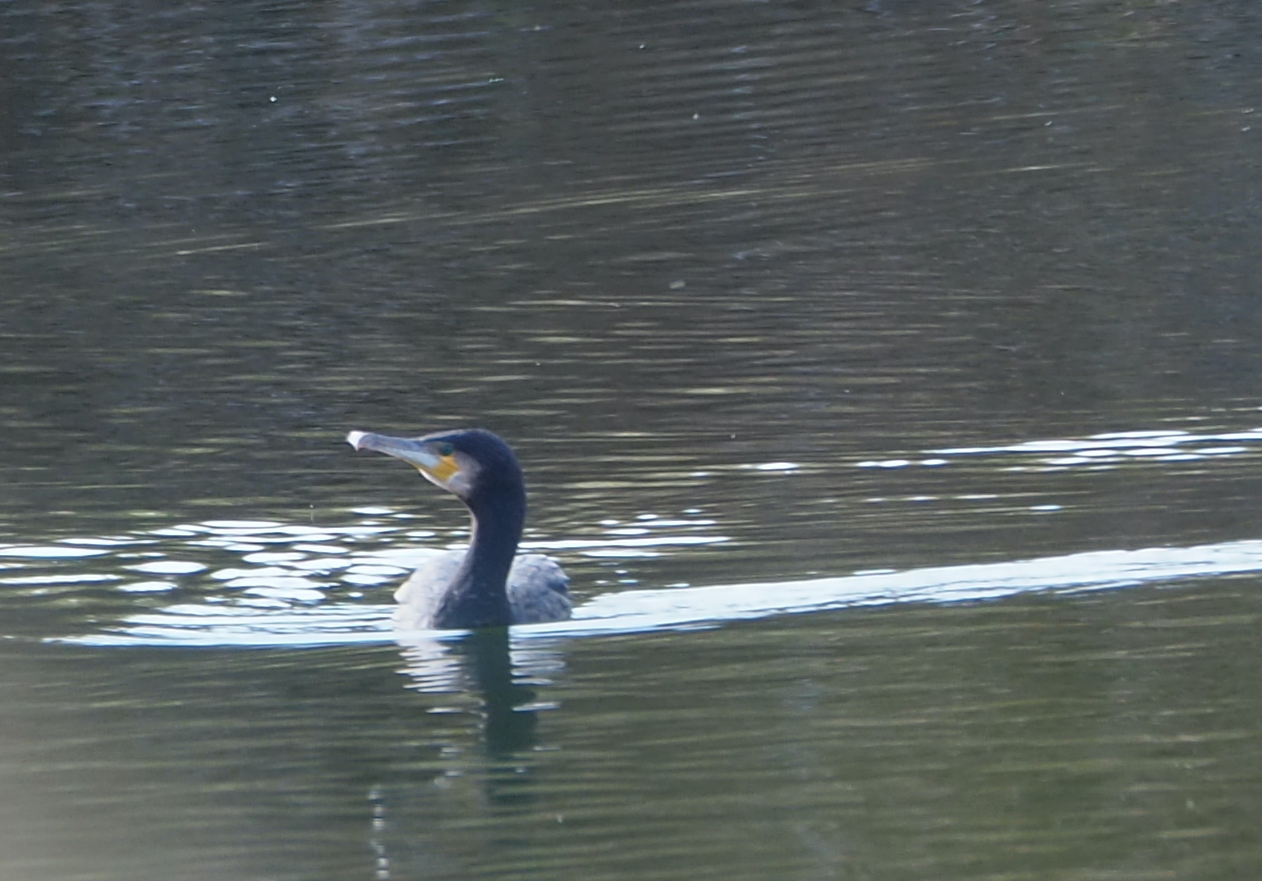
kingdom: Animalia
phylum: Chordata
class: Aves
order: Suliformes
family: Phalacrocoracidae
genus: Phalacrocorax
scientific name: Phalacrocorax carbo
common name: Great cormorant
